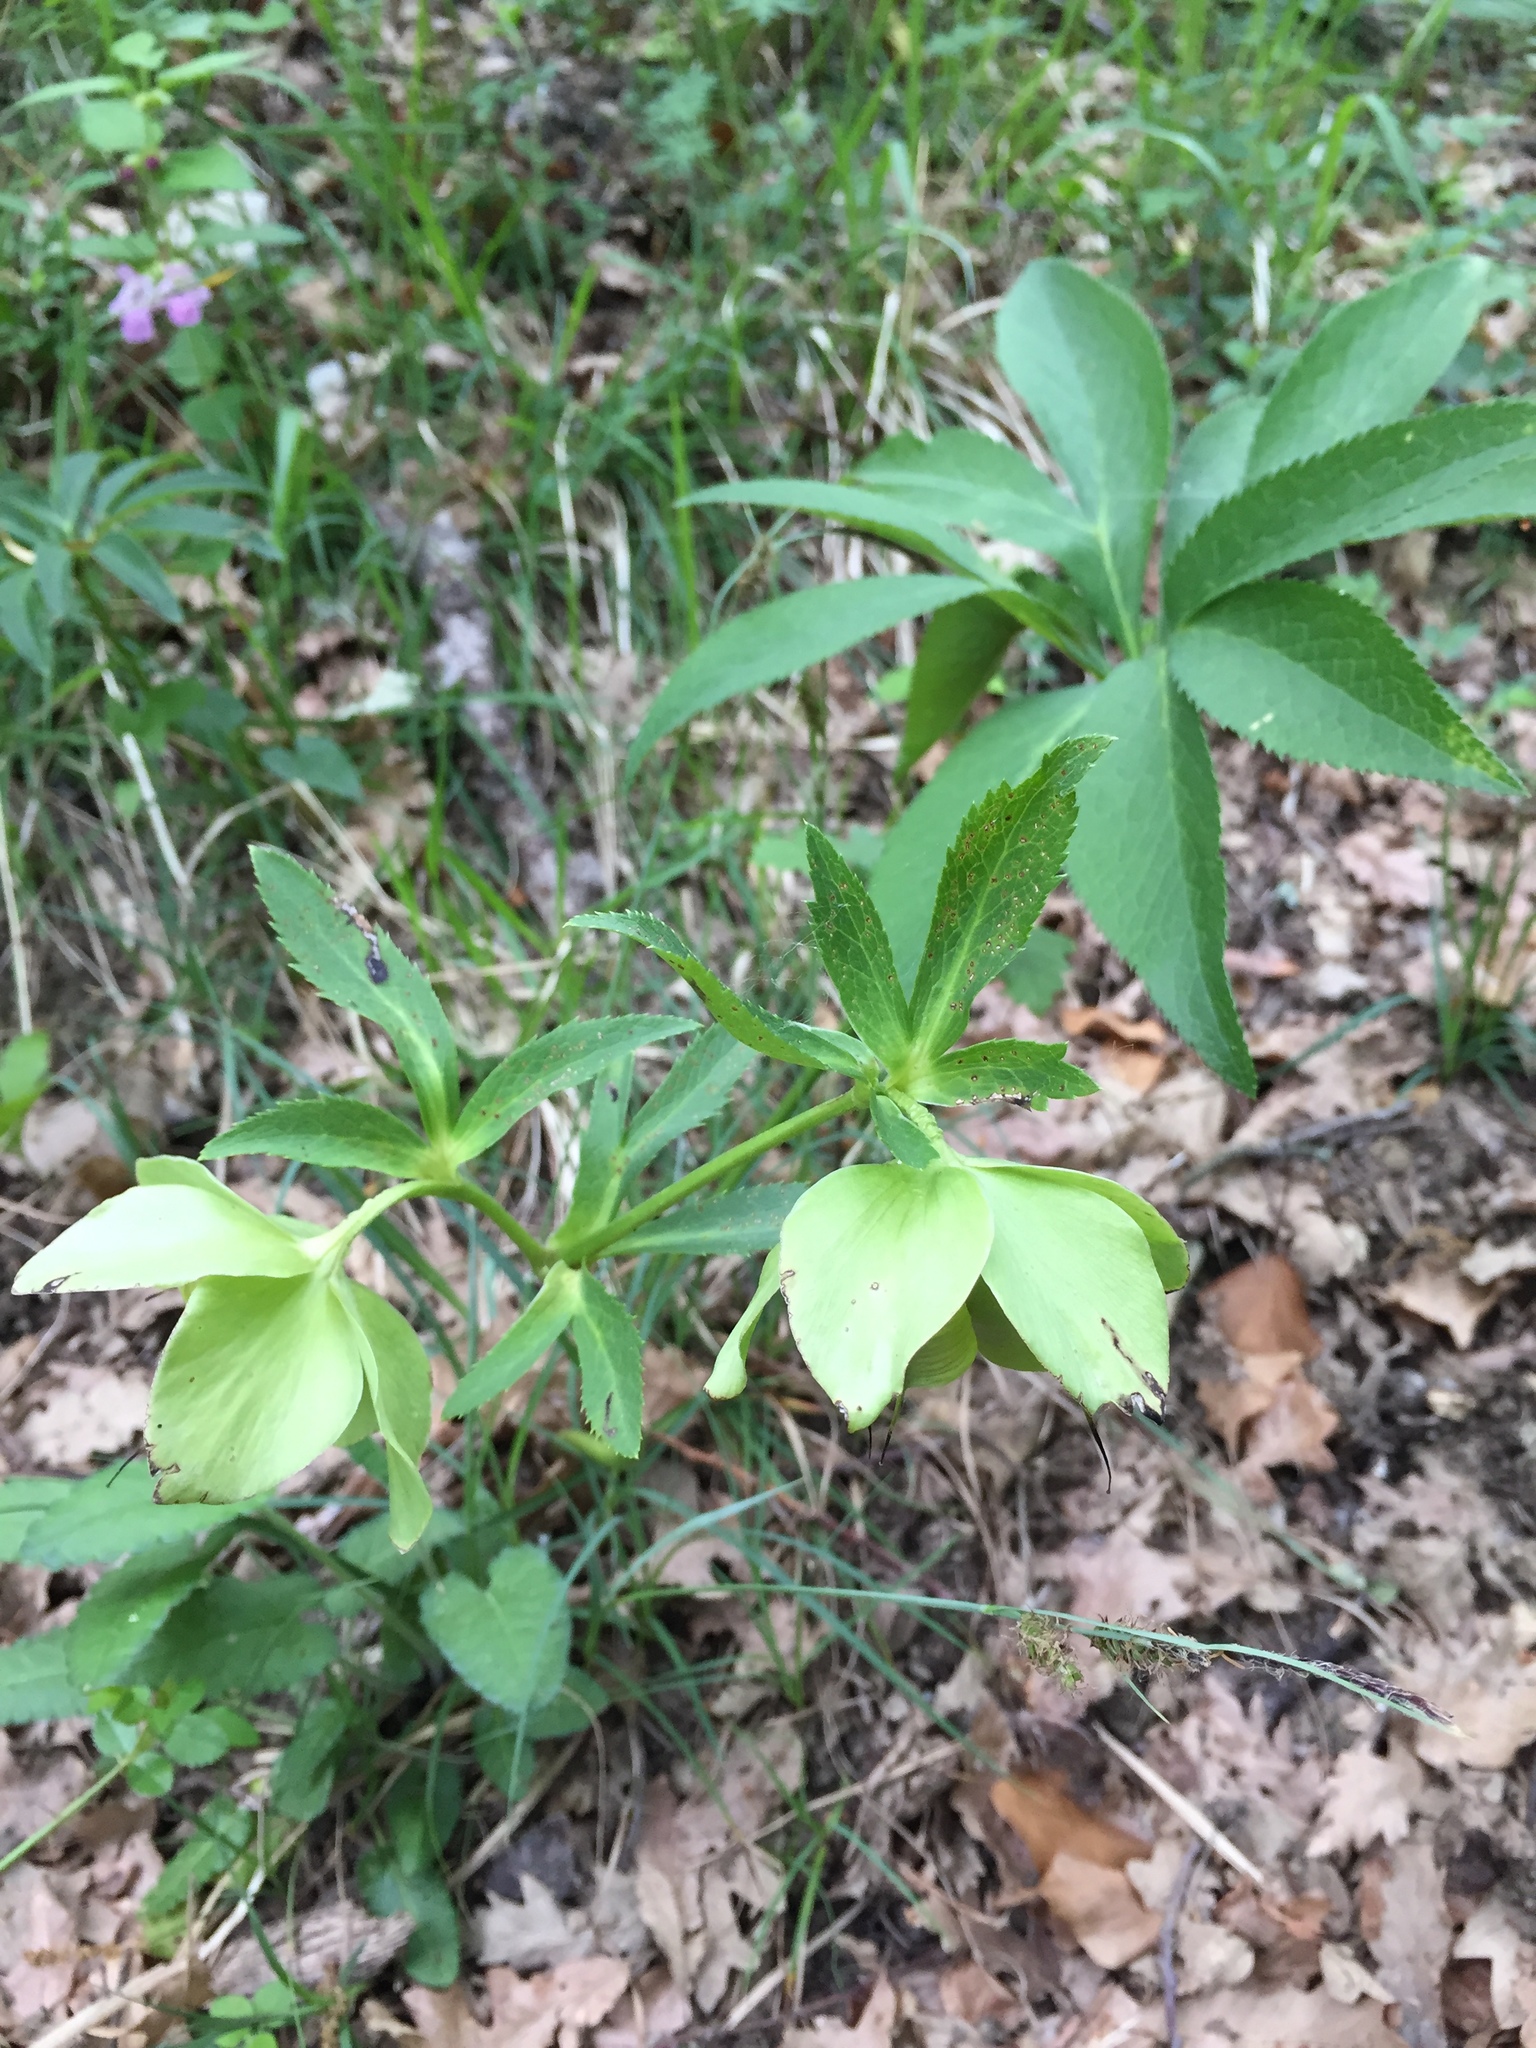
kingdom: Plantae
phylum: Tracheophyta
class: Magnoliopsida
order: Ranunculales
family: Ranunculaceae
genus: Helleborus
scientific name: Helleborus viridis
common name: Green hellebore
